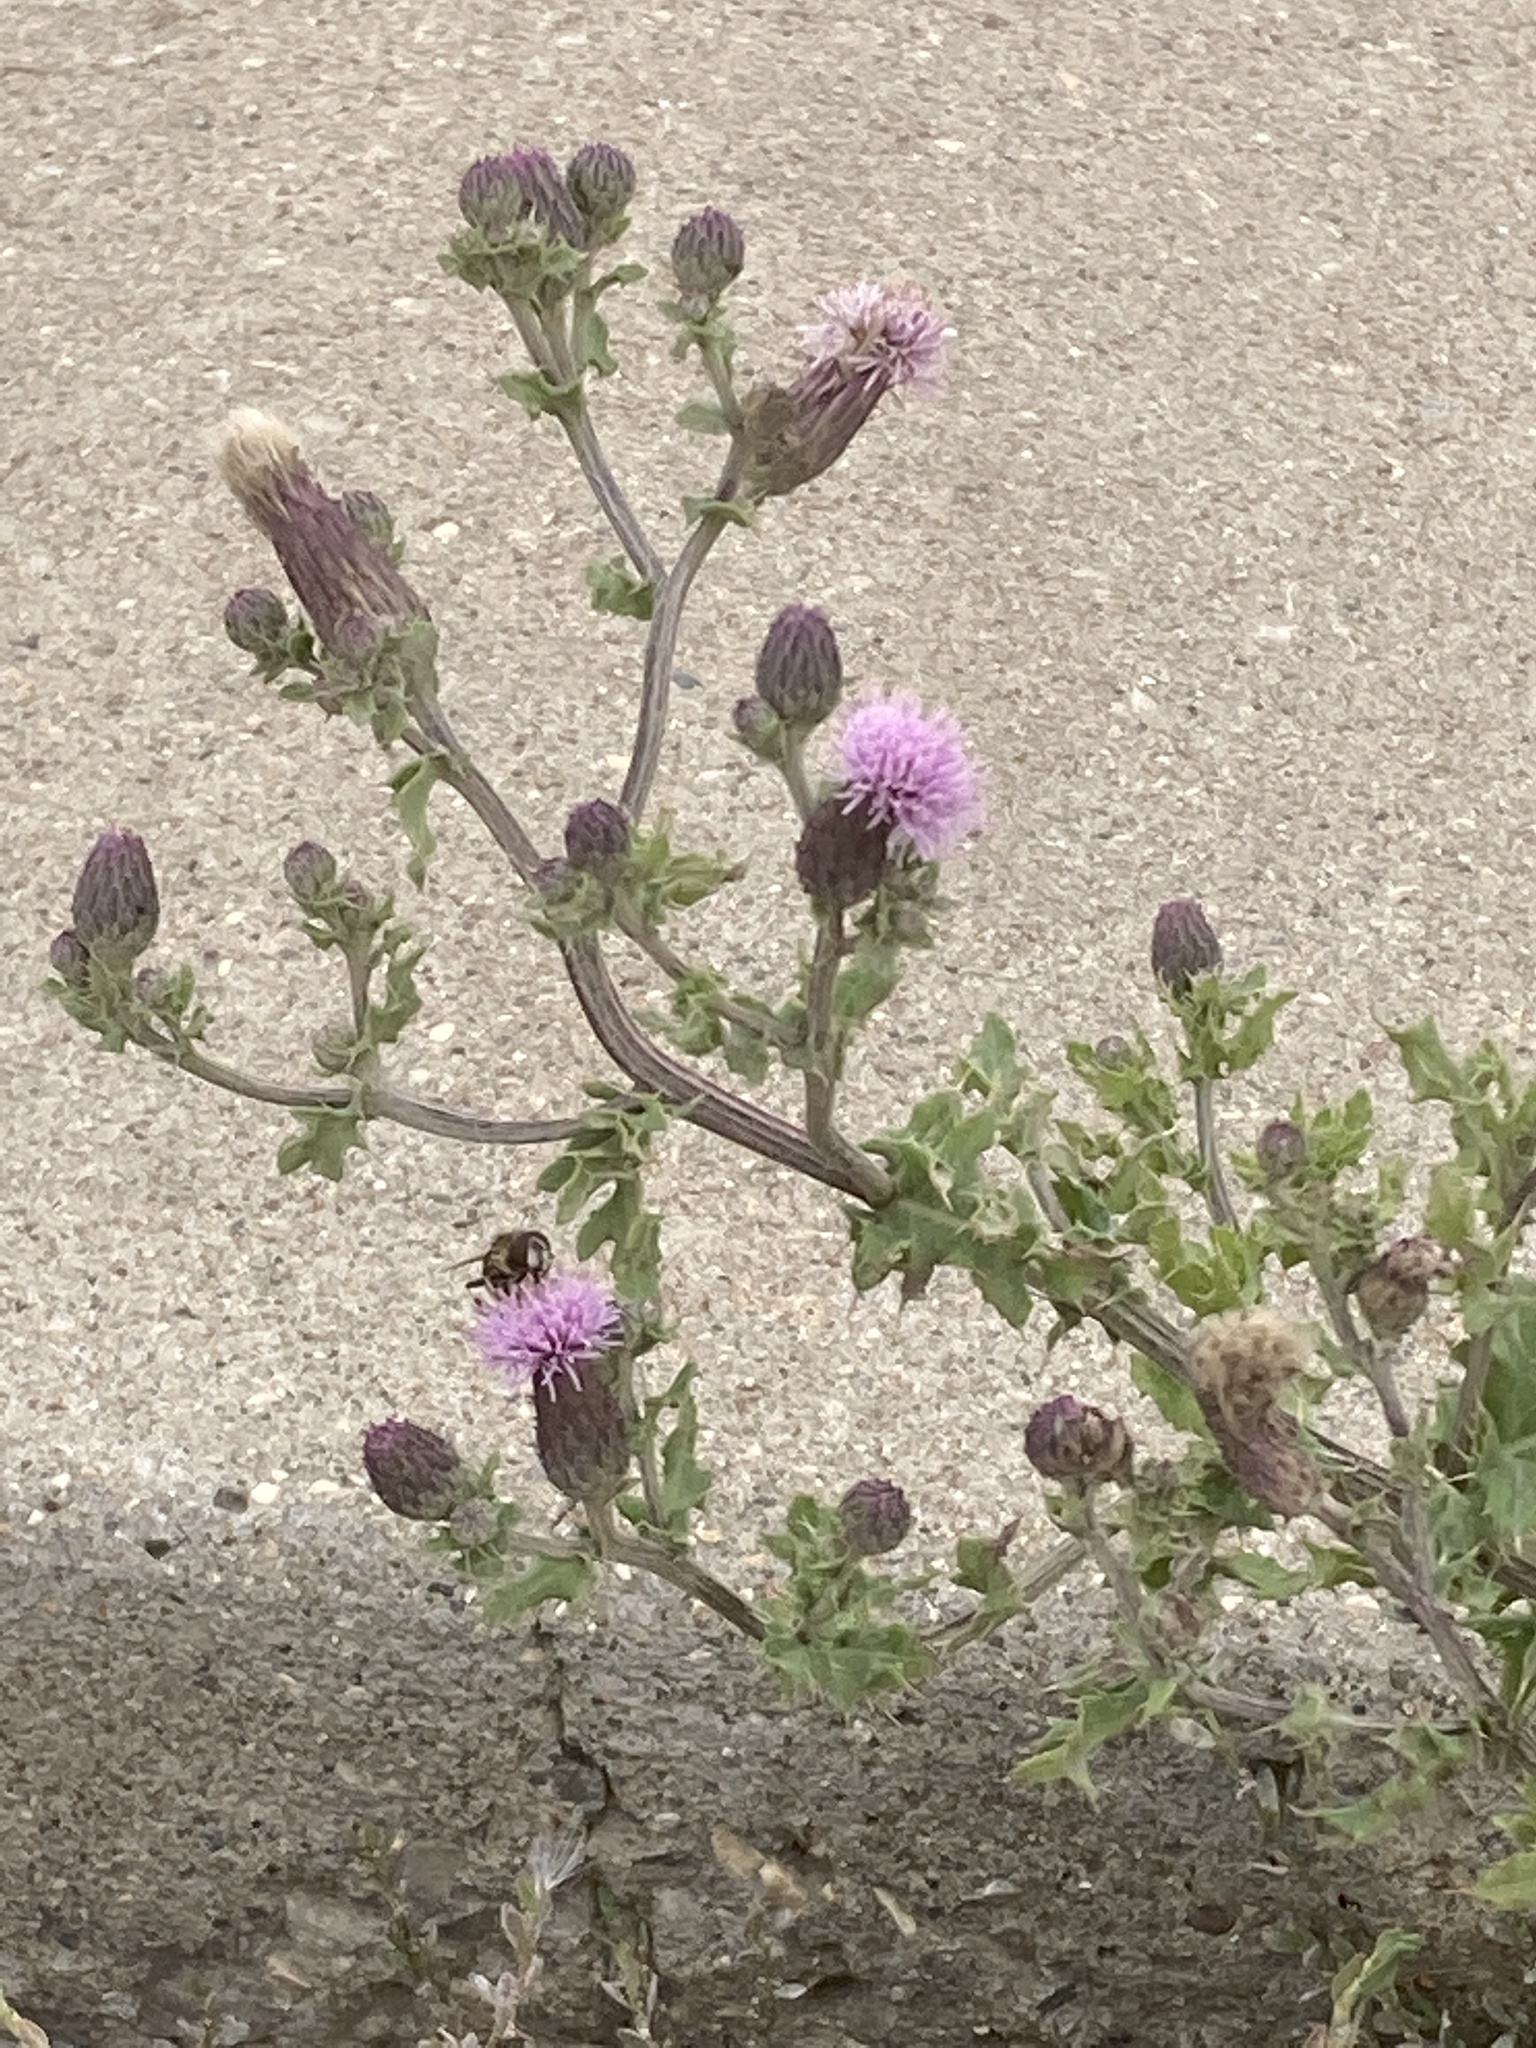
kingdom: Plantae
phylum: Tracheophyta
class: Magnoliopsida
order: Asterales
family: Asteraceae
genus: Cirsium
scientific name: Cirsium arvense
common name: Creeping thistle
